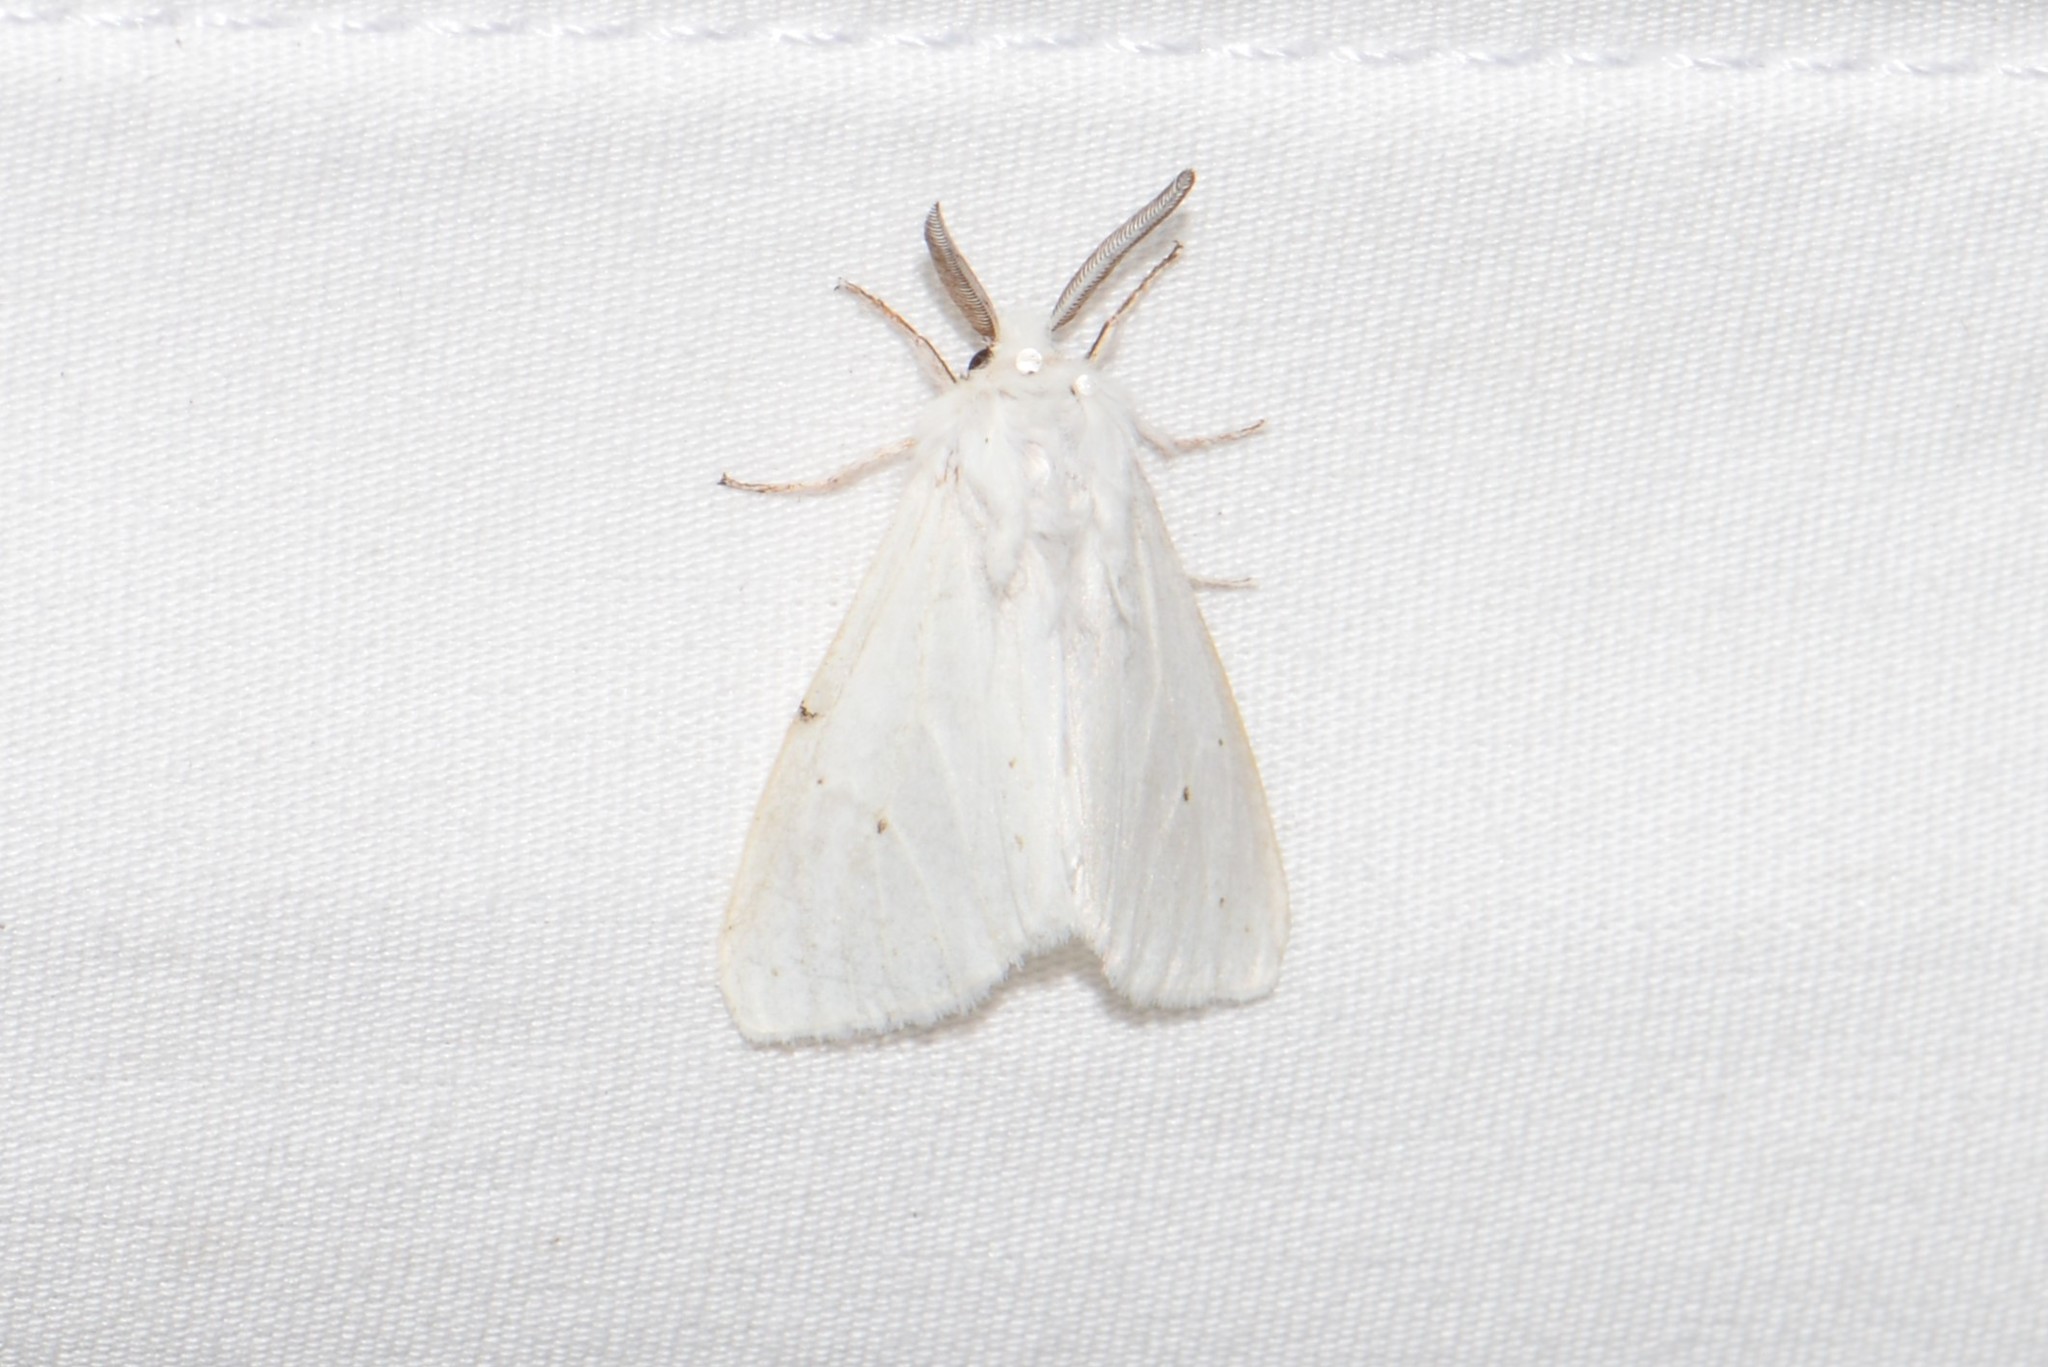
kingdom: Animalia
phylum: Arthropoda
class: Insecta
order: Lepidoptera
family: Erebidae
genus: Spilosoma
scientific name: Spilosoma congrua
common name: Agreeable tiger moth
